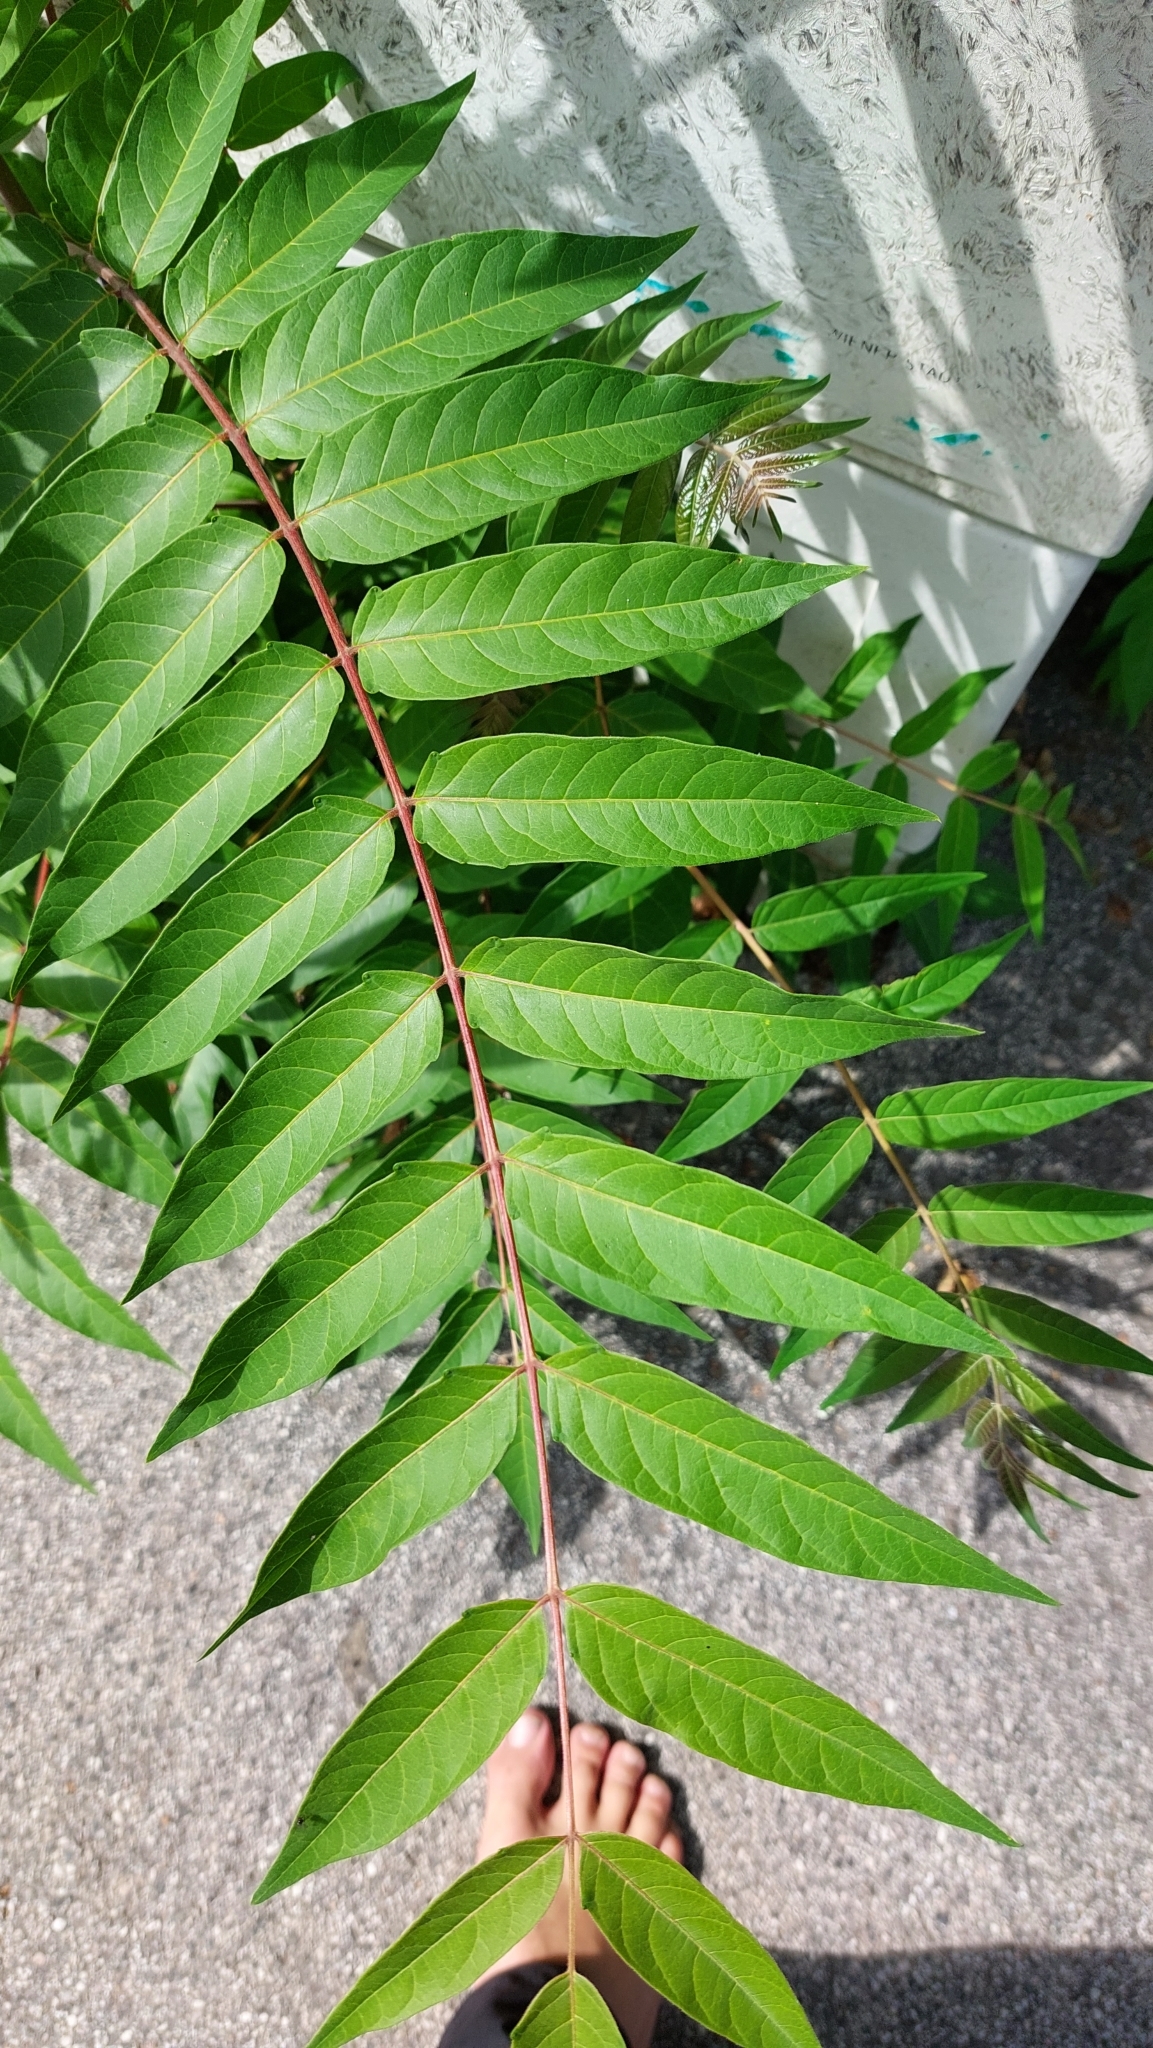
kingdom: Plantae
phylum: Tracheophyta
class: Magnoliopsida
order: Sapindales
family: Simaroubaceae
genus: Ailanthus
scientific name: Ailanthus altissima
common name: Tree-of-heaven
